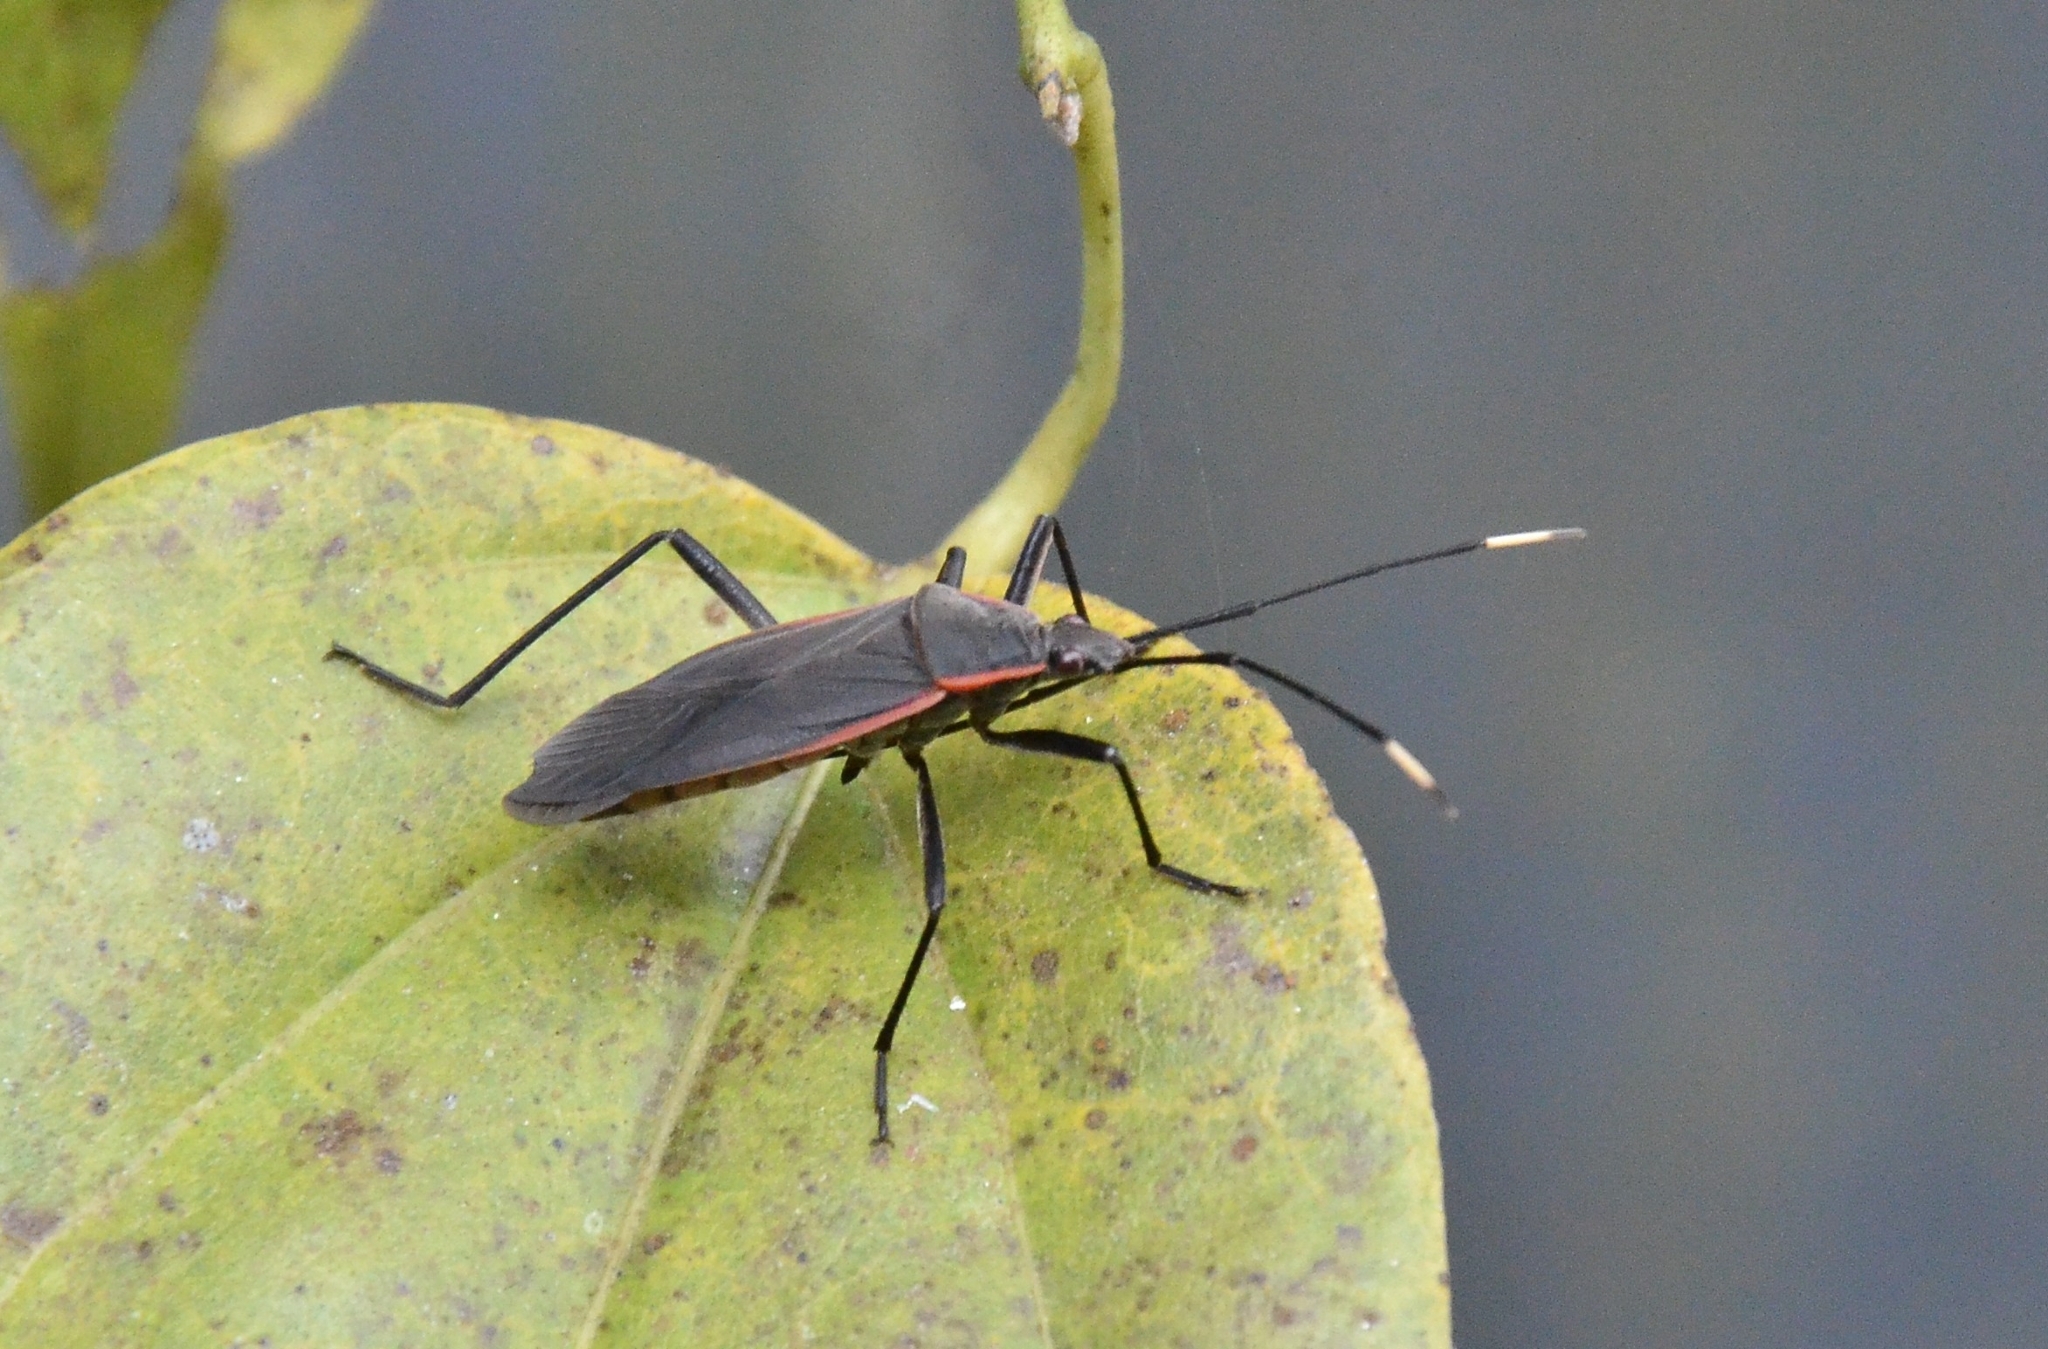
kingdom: Animalia
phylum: Arthropoda
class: Insecta
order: Hemiptera
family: Pyrrhocoridae
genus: Melamphaus
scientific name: Melamphaus
